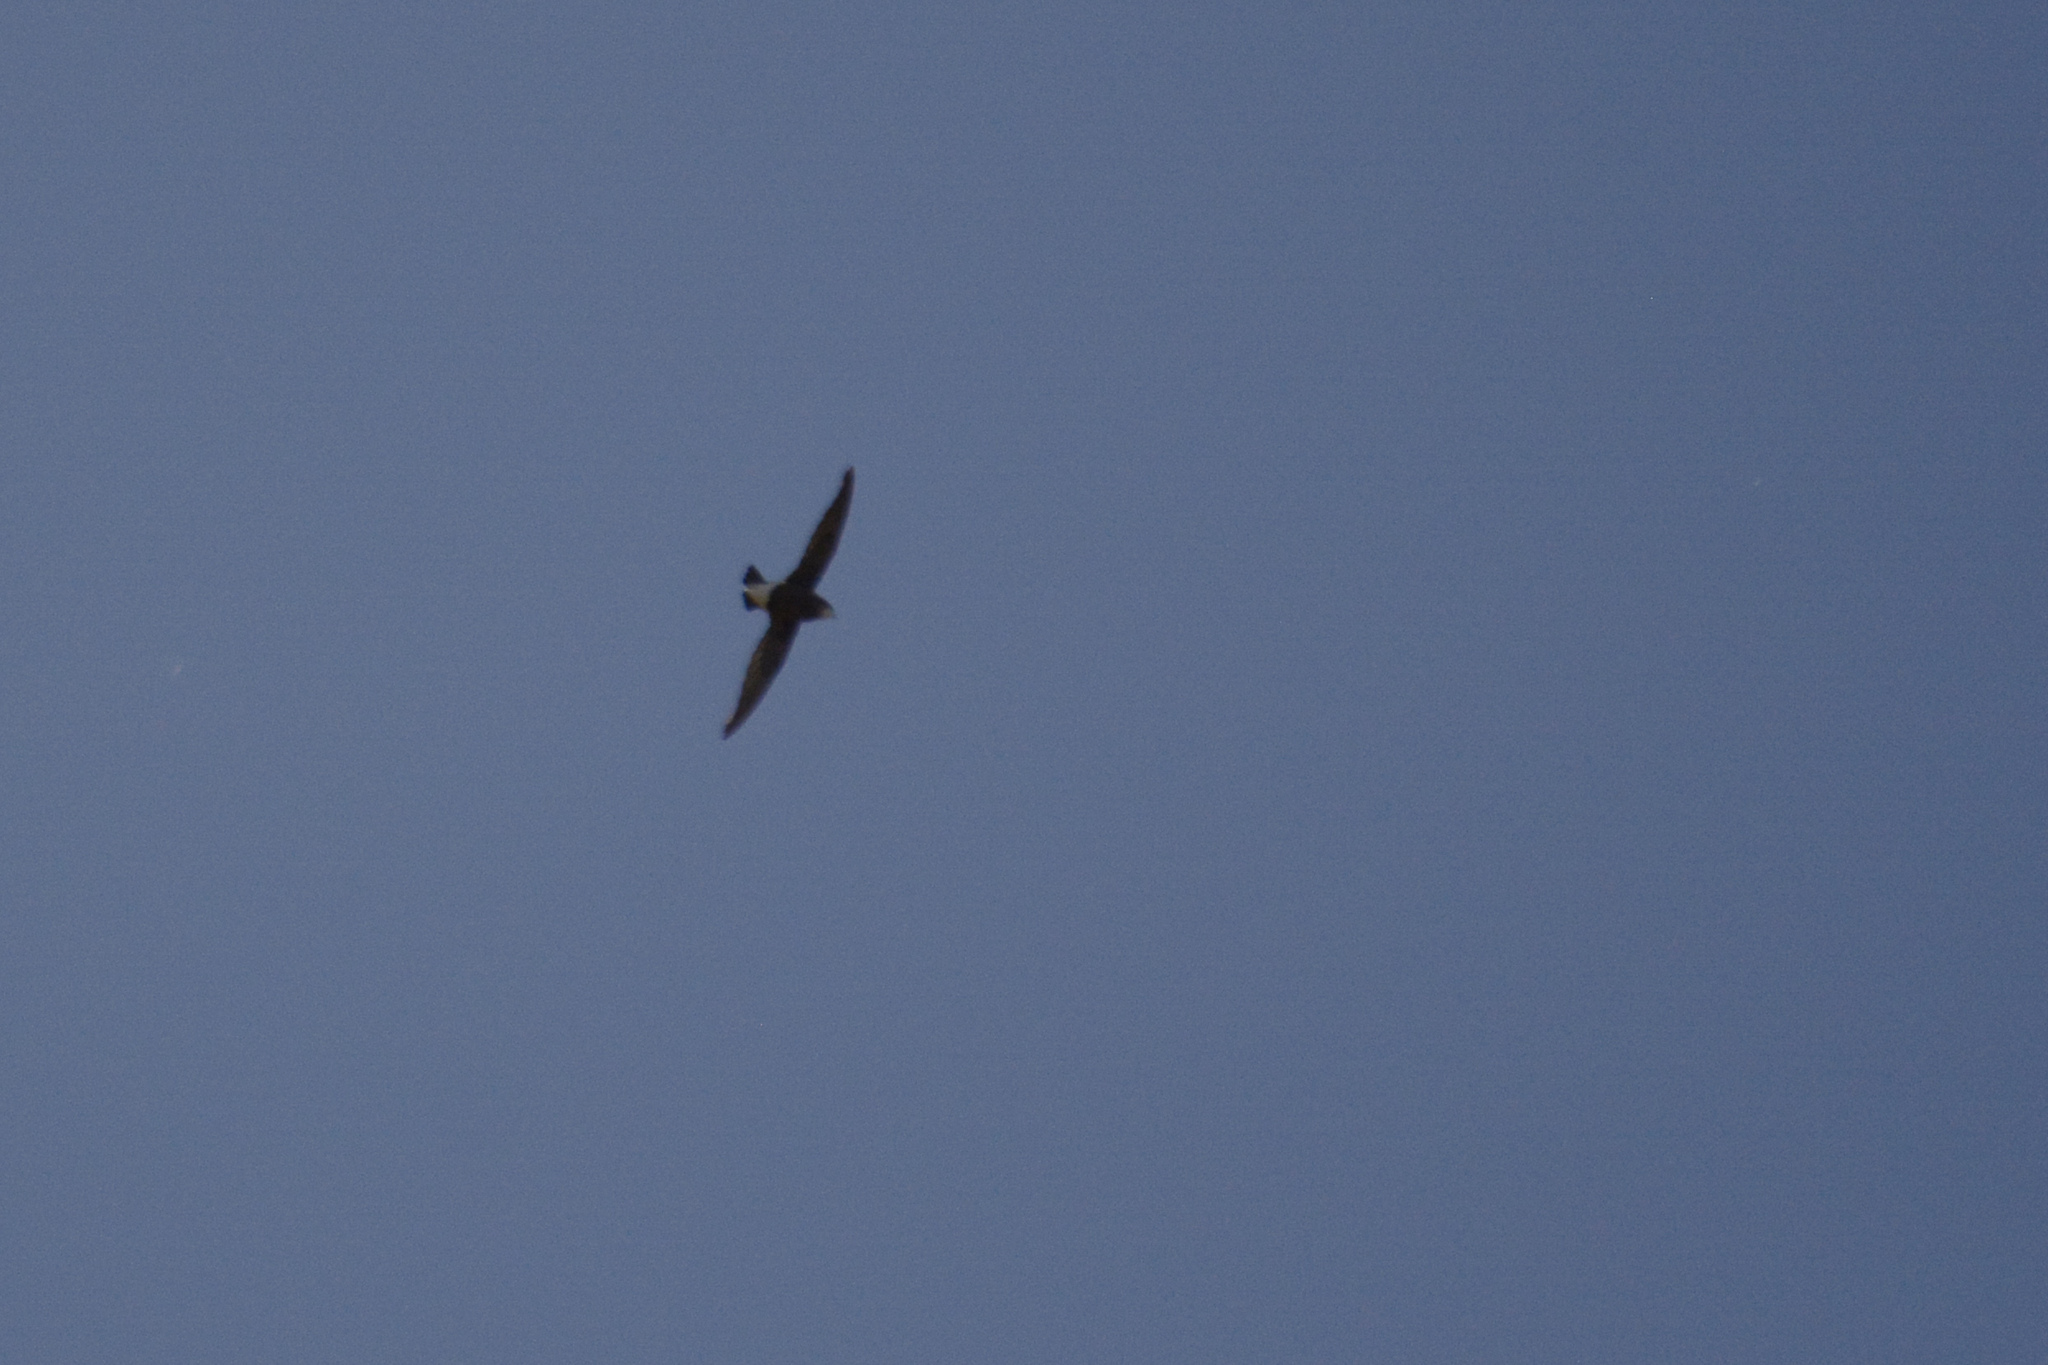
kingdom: Animalia
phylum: Chordata
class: Aves
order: Apodiformes
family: Apodidae
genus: Hirundapus
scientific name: Hirundapus caudacutus
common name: White-throated needletail
